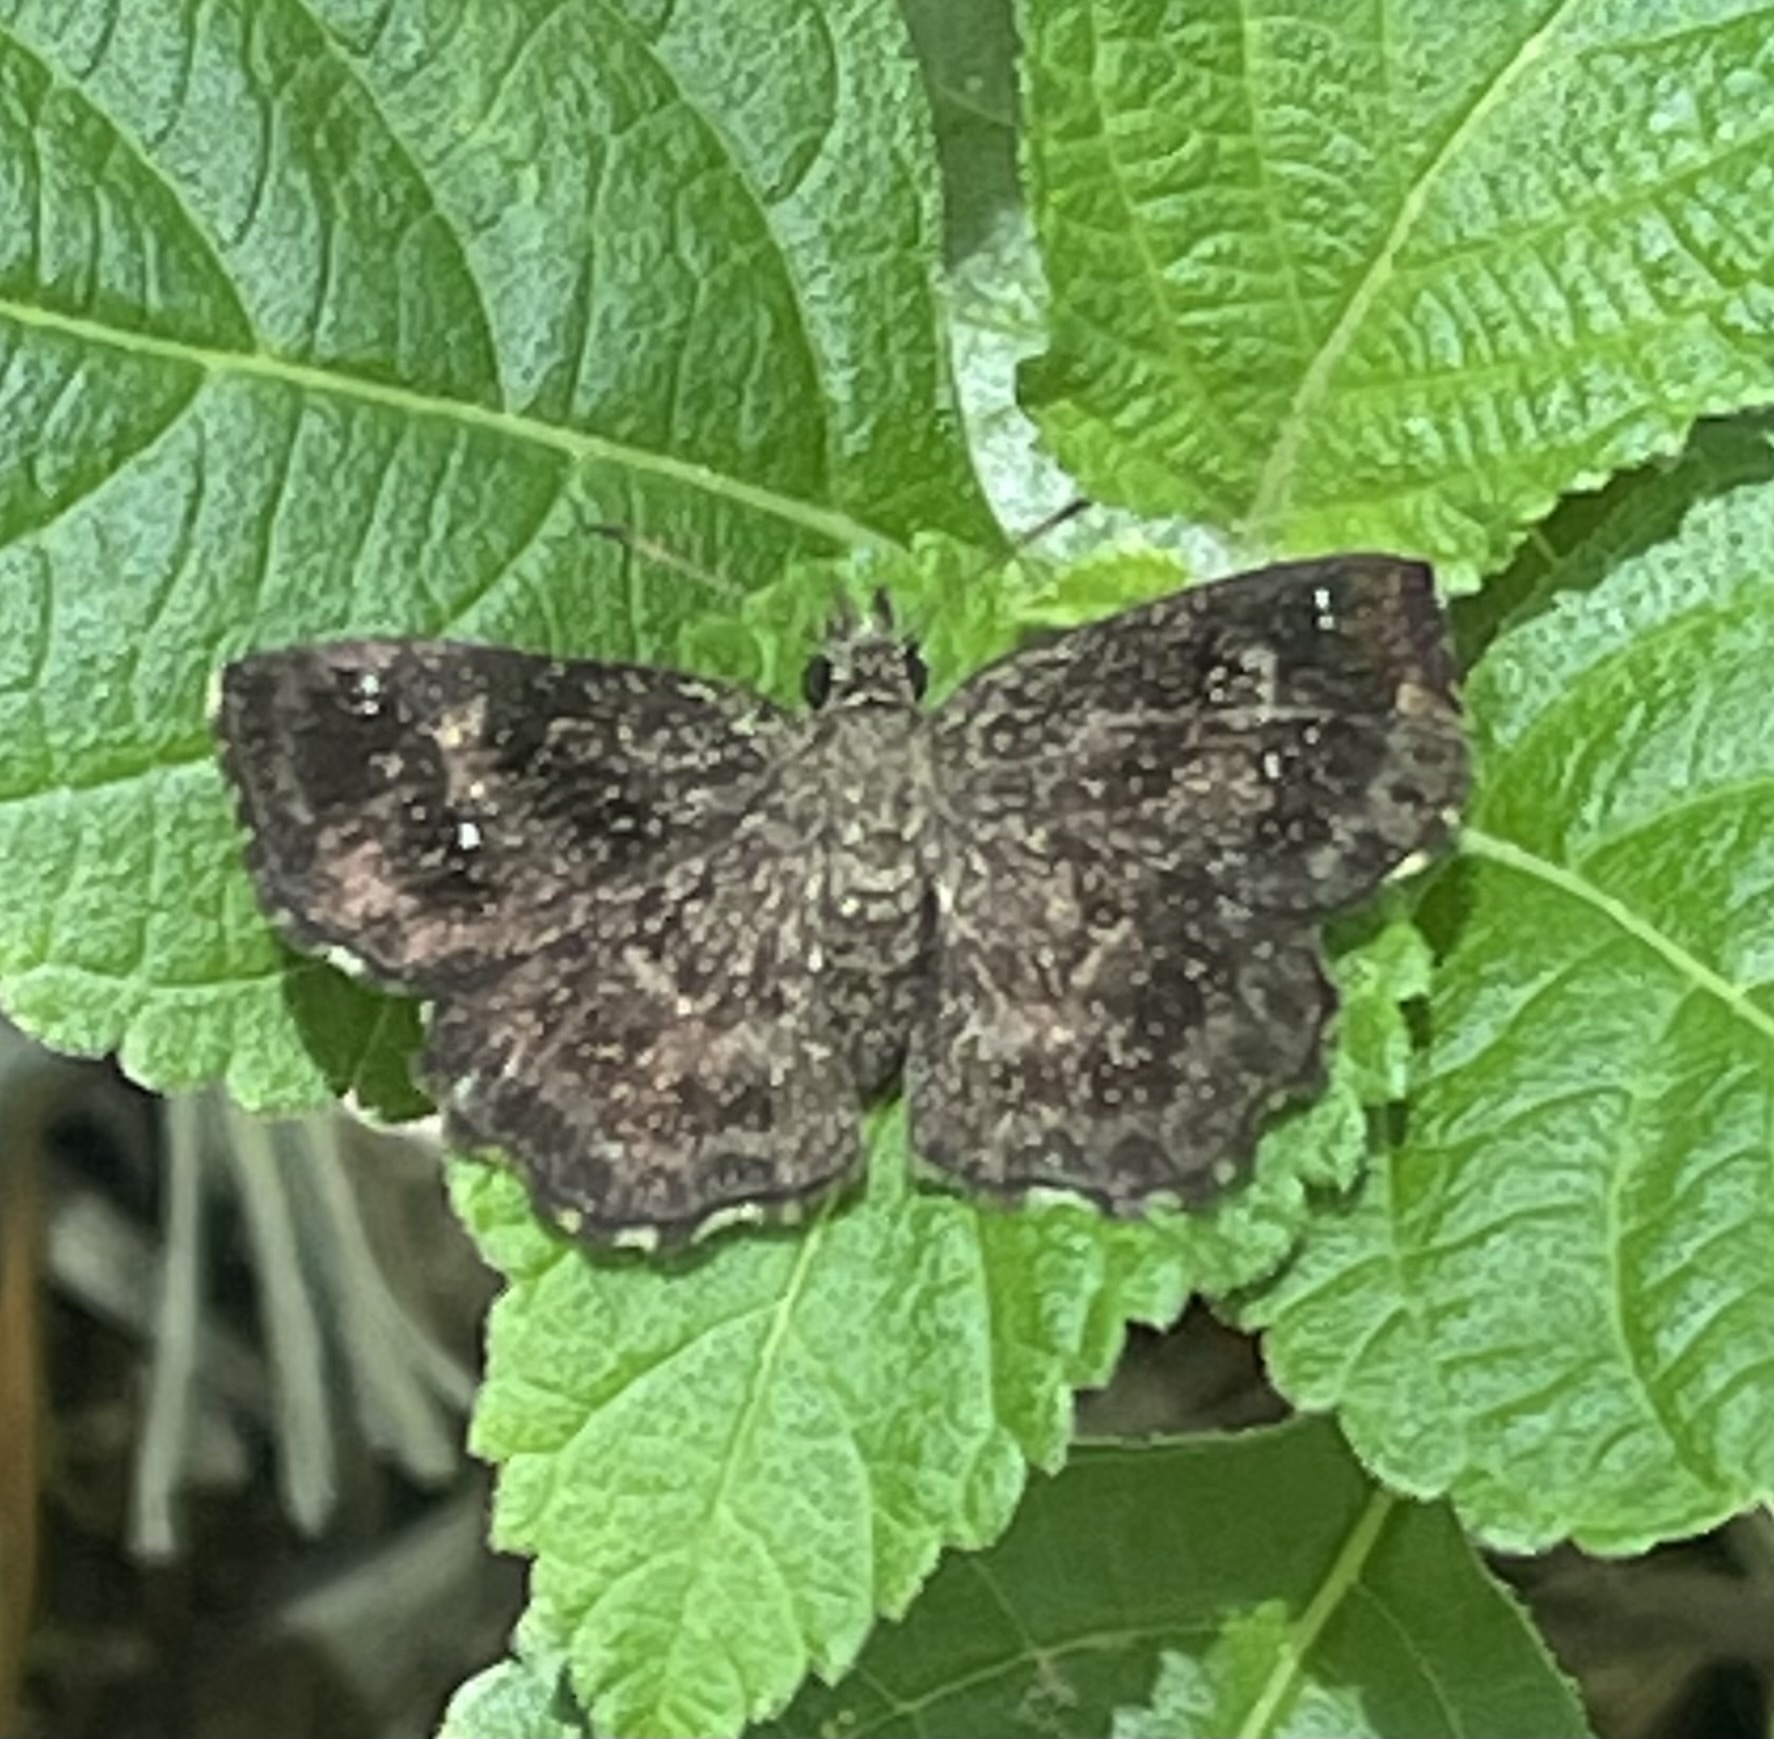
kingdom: Animalia
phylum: Arthropoda
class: Insecta
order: Lepidoptera
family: Hesperiidae
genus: Staphylus
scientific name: Staphylus mazans
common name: Mazans scallopwing
